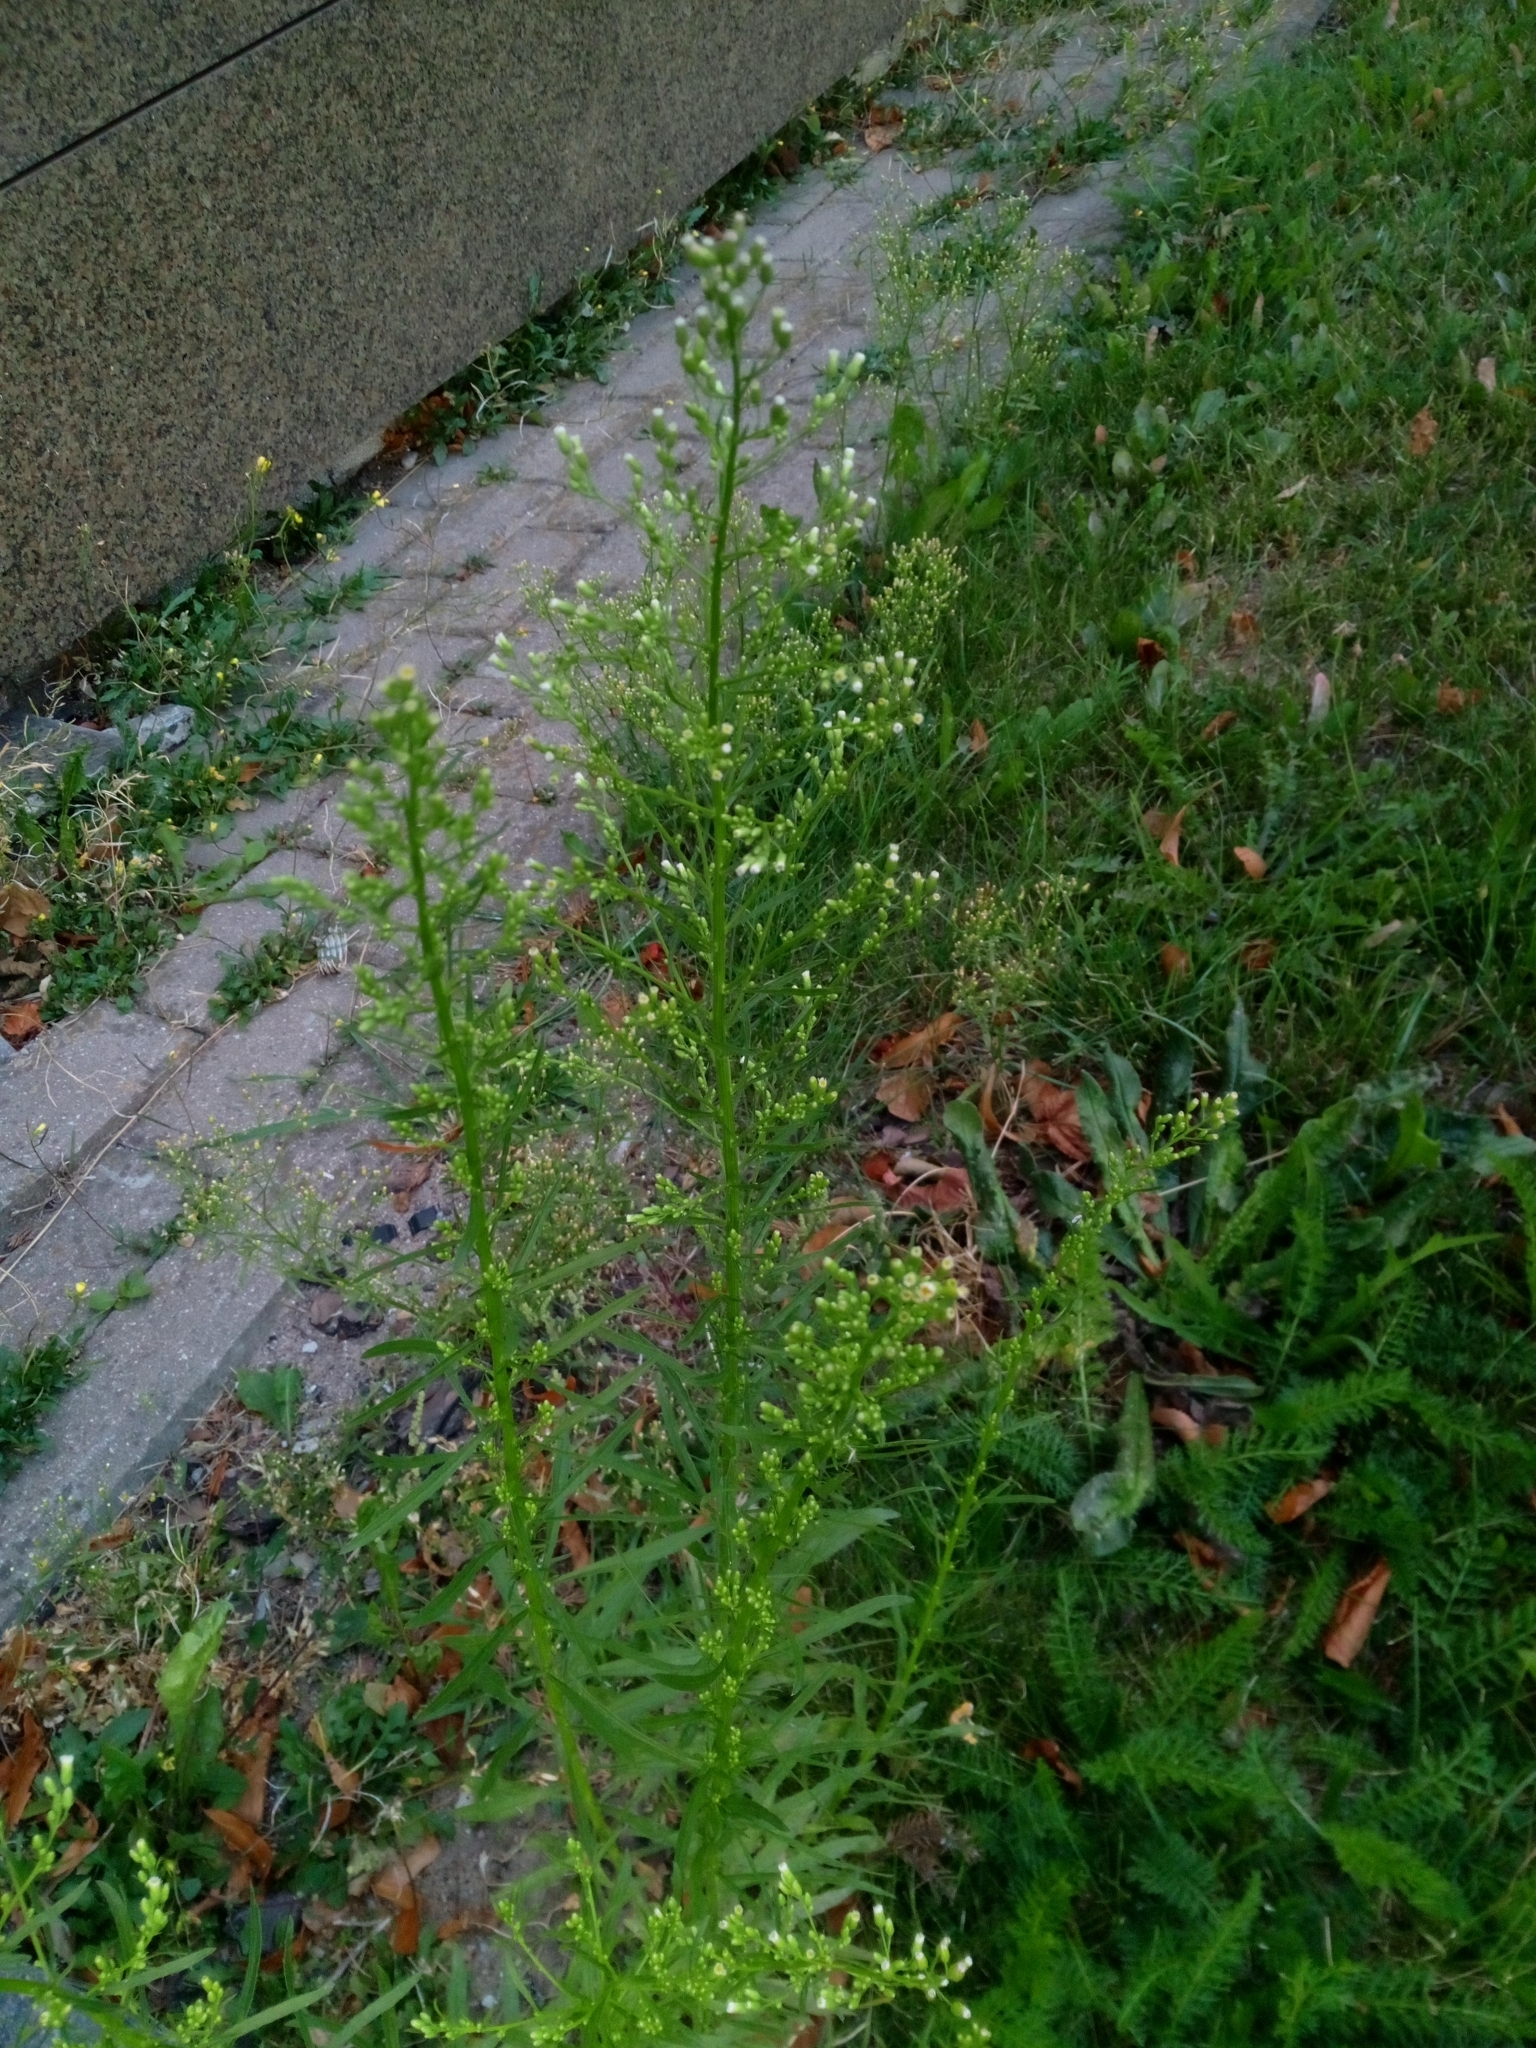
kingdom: Plantae
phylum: Tracheophyta
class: Magnoliopsida
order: Asterales
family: Asteraceae
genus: Erigeron
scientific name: Erigeron canadensis
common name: Canadian fleabane
